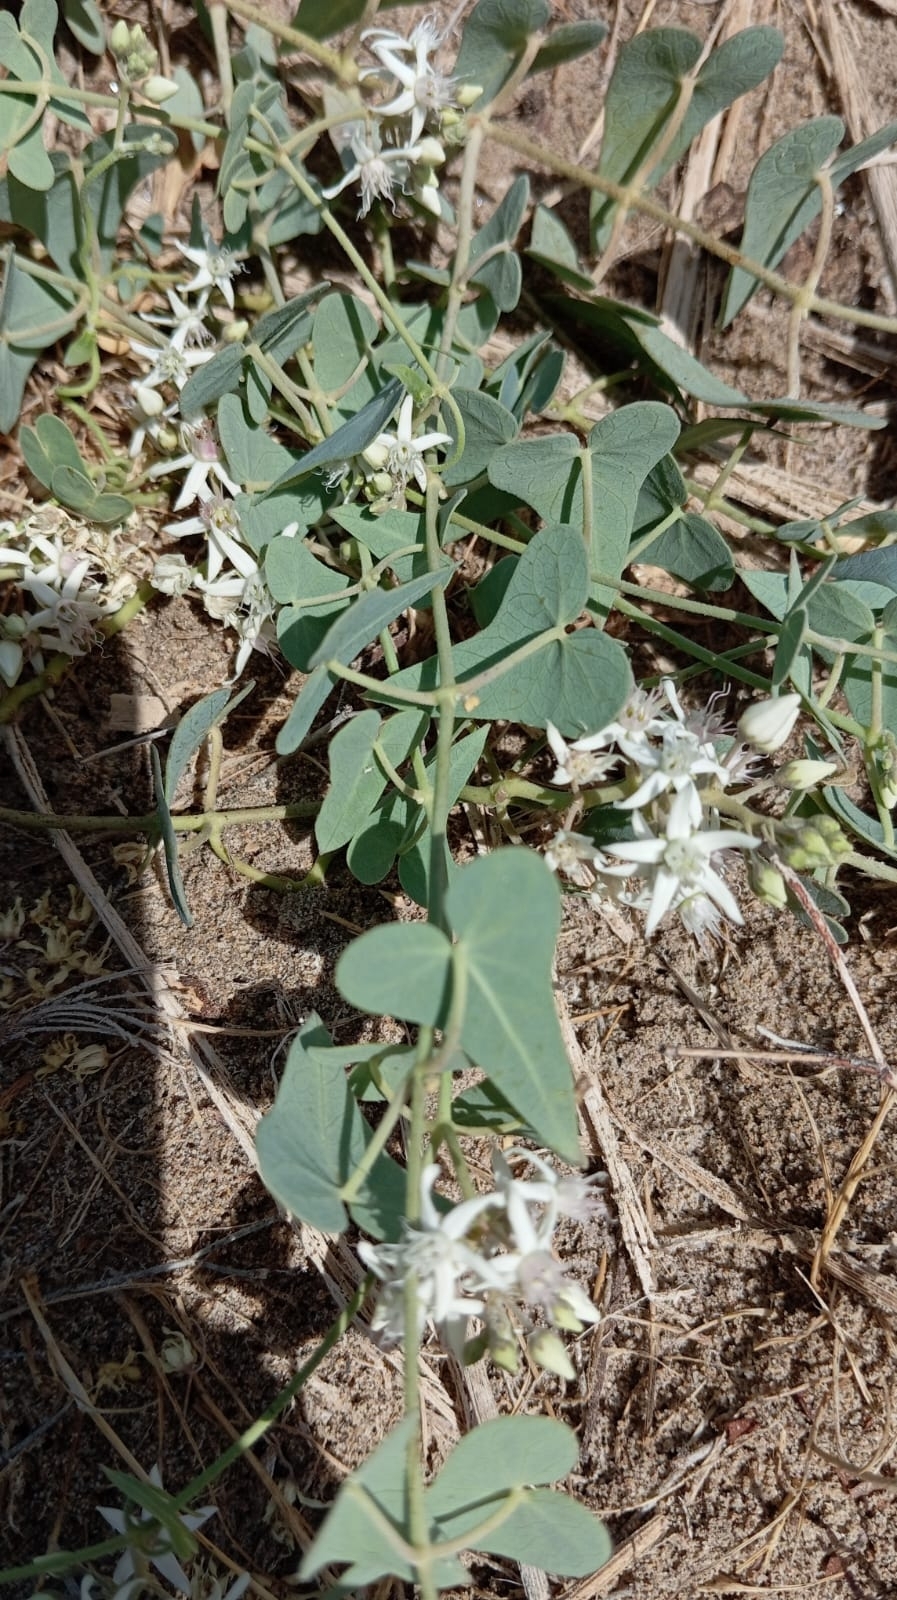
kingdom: Plantae
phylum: Tracheophyta
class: Magnoliopsida
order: Gentianales
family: Apocynaceae
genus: Cynanchum
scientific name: Cynanchum acutum
